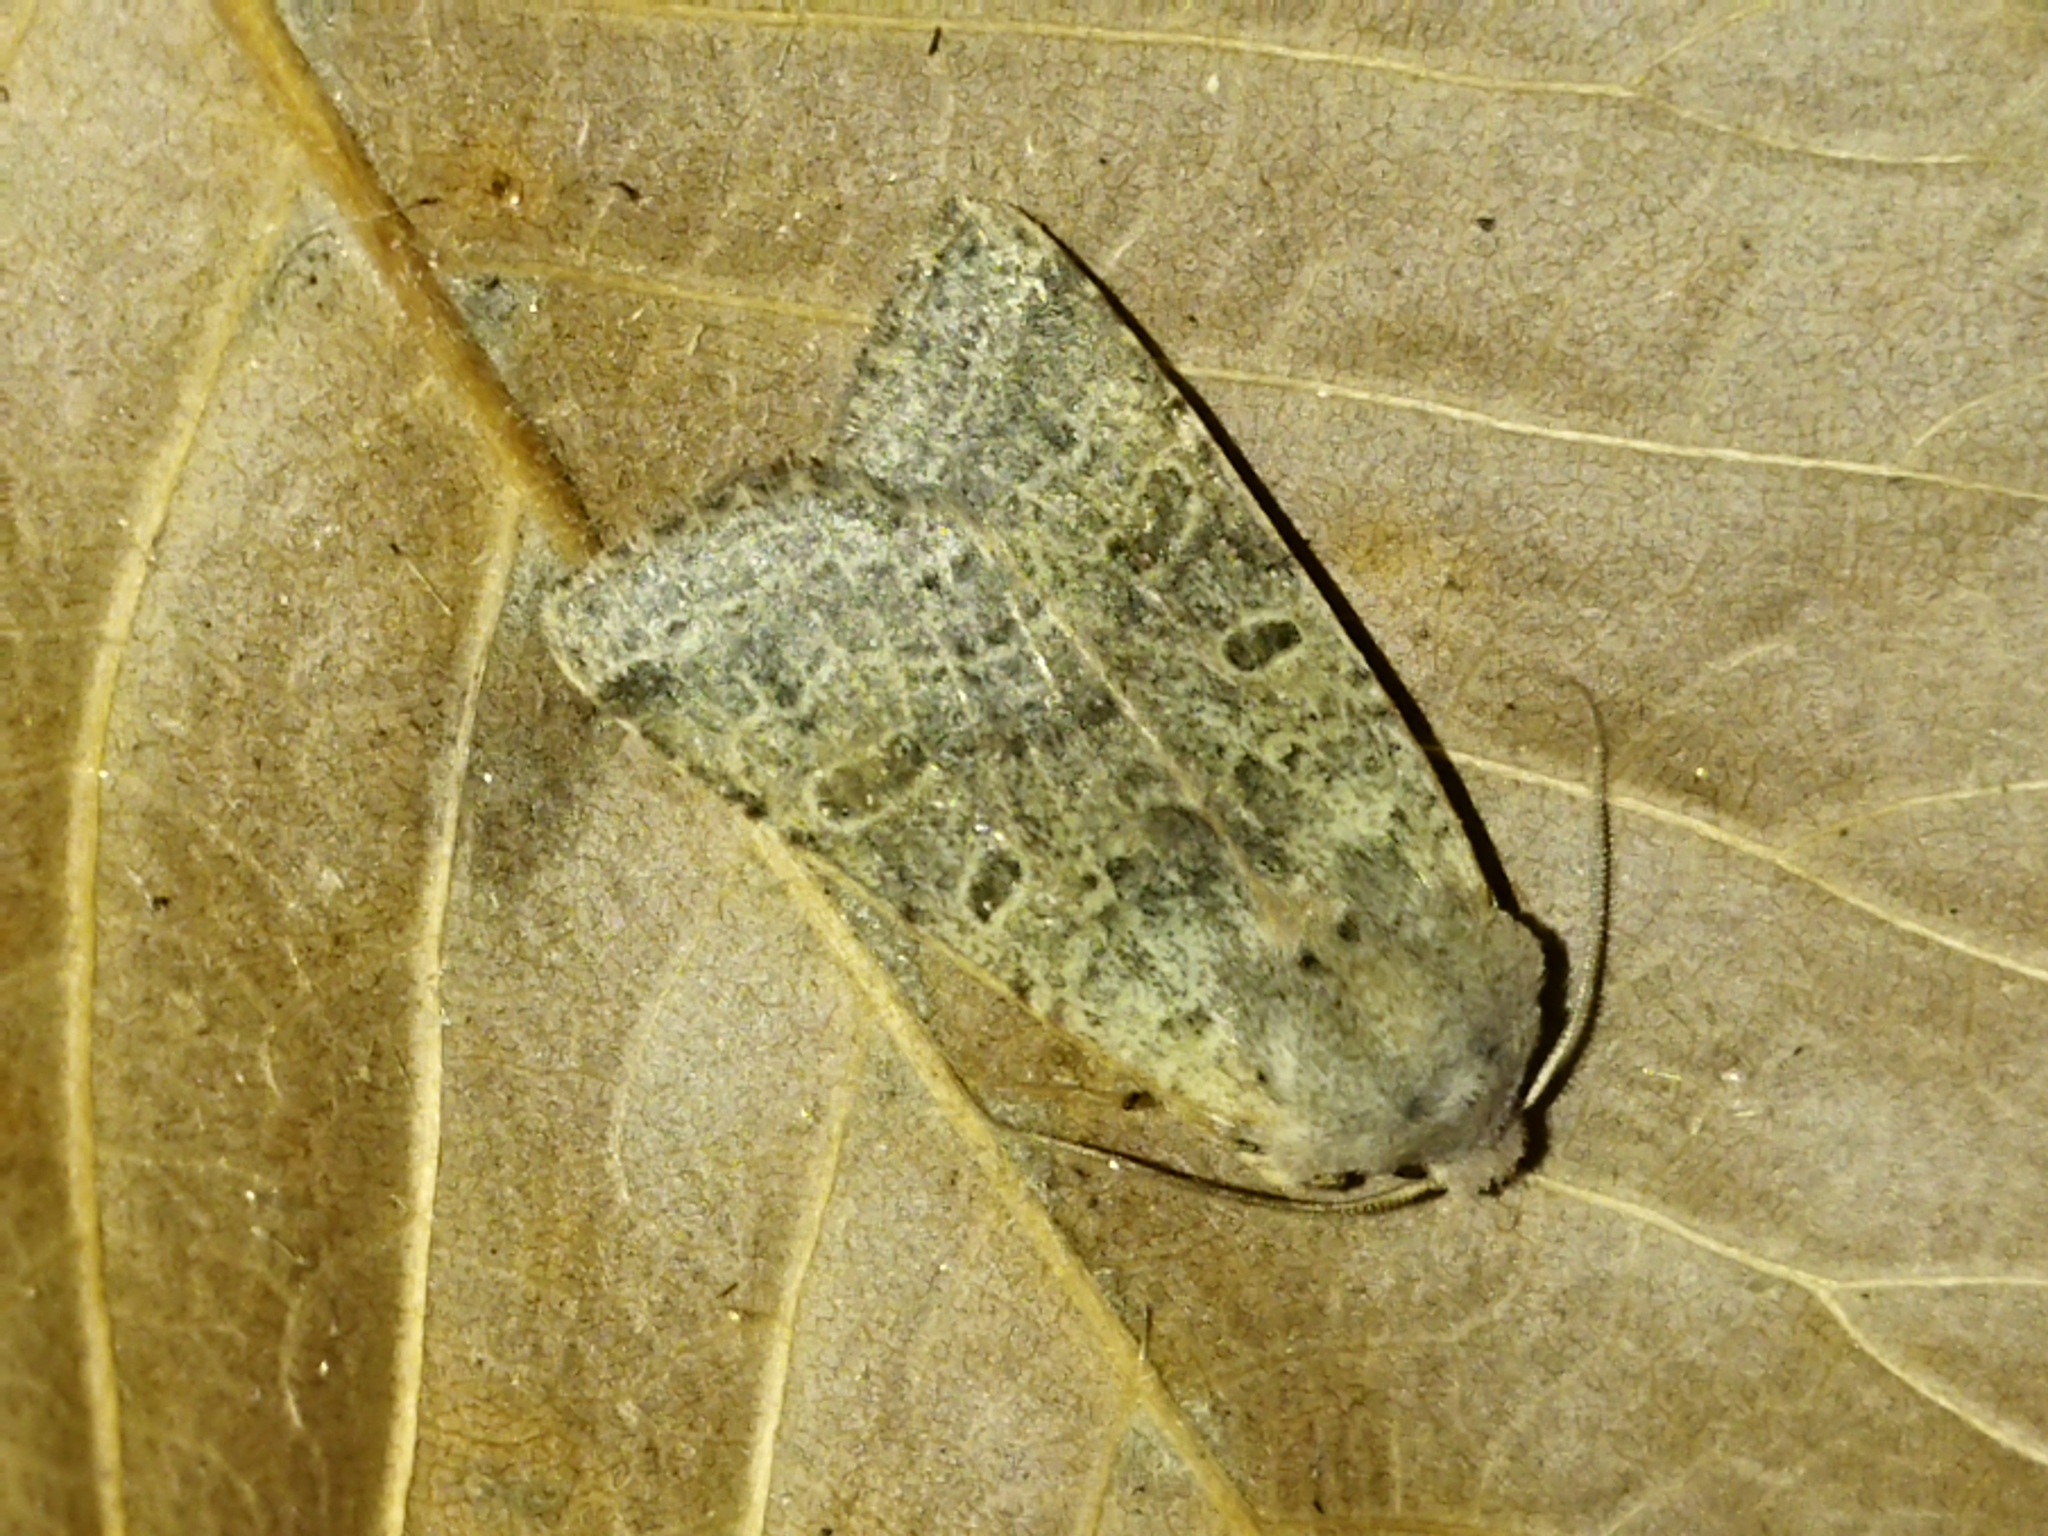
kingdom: Animalia
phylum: Arthropoda
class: Insecta
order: Lepidoptera
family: Noctuidae
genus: Agrochola
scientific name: Agrochola lychnidis
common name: Beaded chestnut
